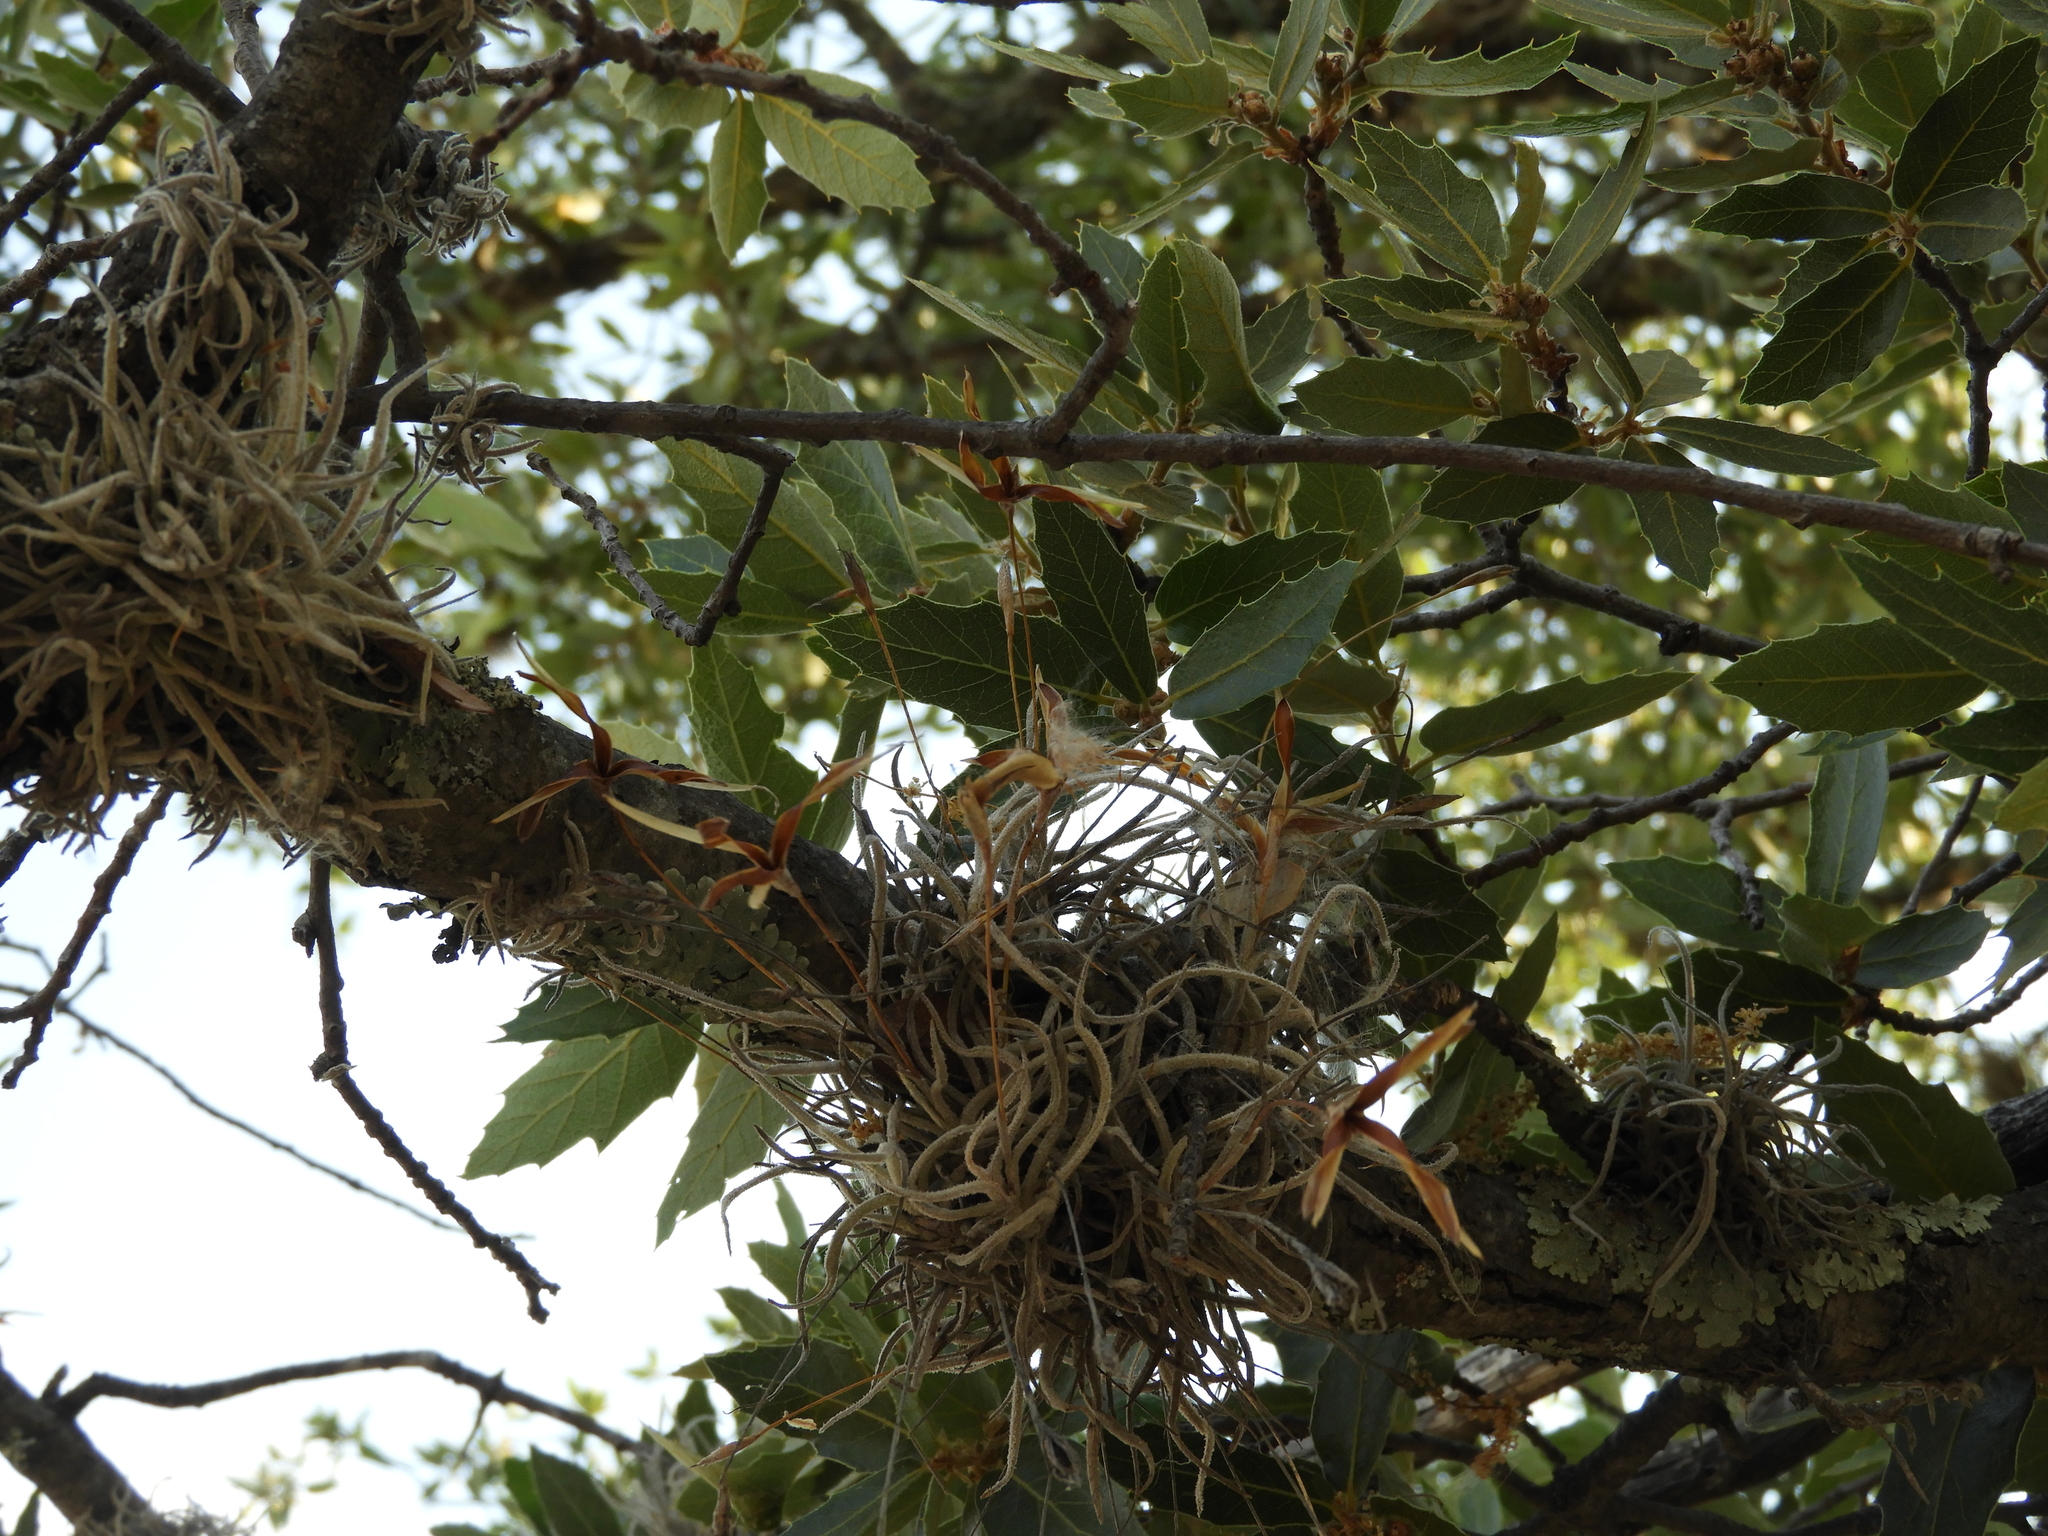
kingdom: Plantae
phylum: Tracheophyta
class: Liliopsida
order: Poales
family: Bromeliaceae
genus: Tillandsia
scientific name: Tillandsia recurvata
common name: Small ballmoss
